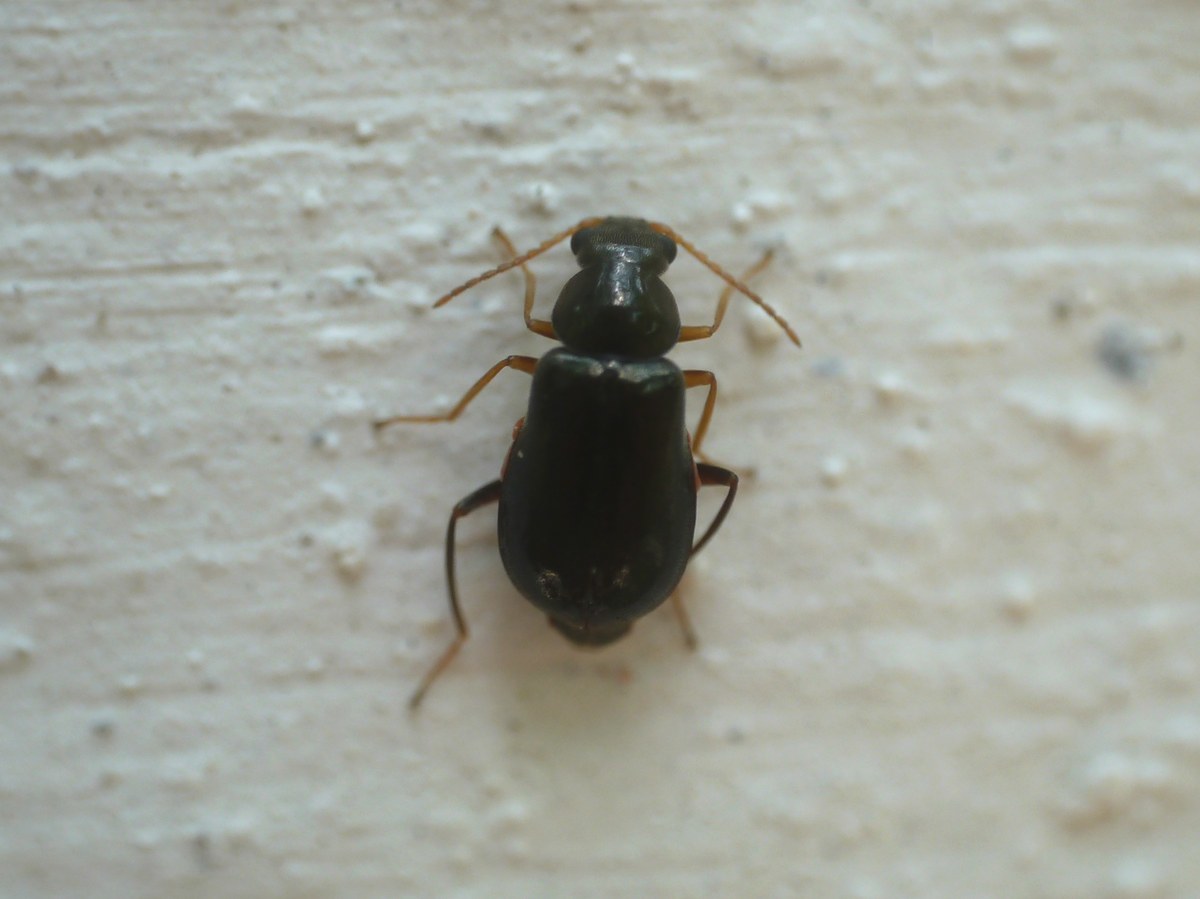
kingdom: Animalia
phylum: Arthropoda
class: Insecta
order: Coleoptera
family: Malachiidae
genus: Ebaeus
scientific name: Ebaeus flavicornis
